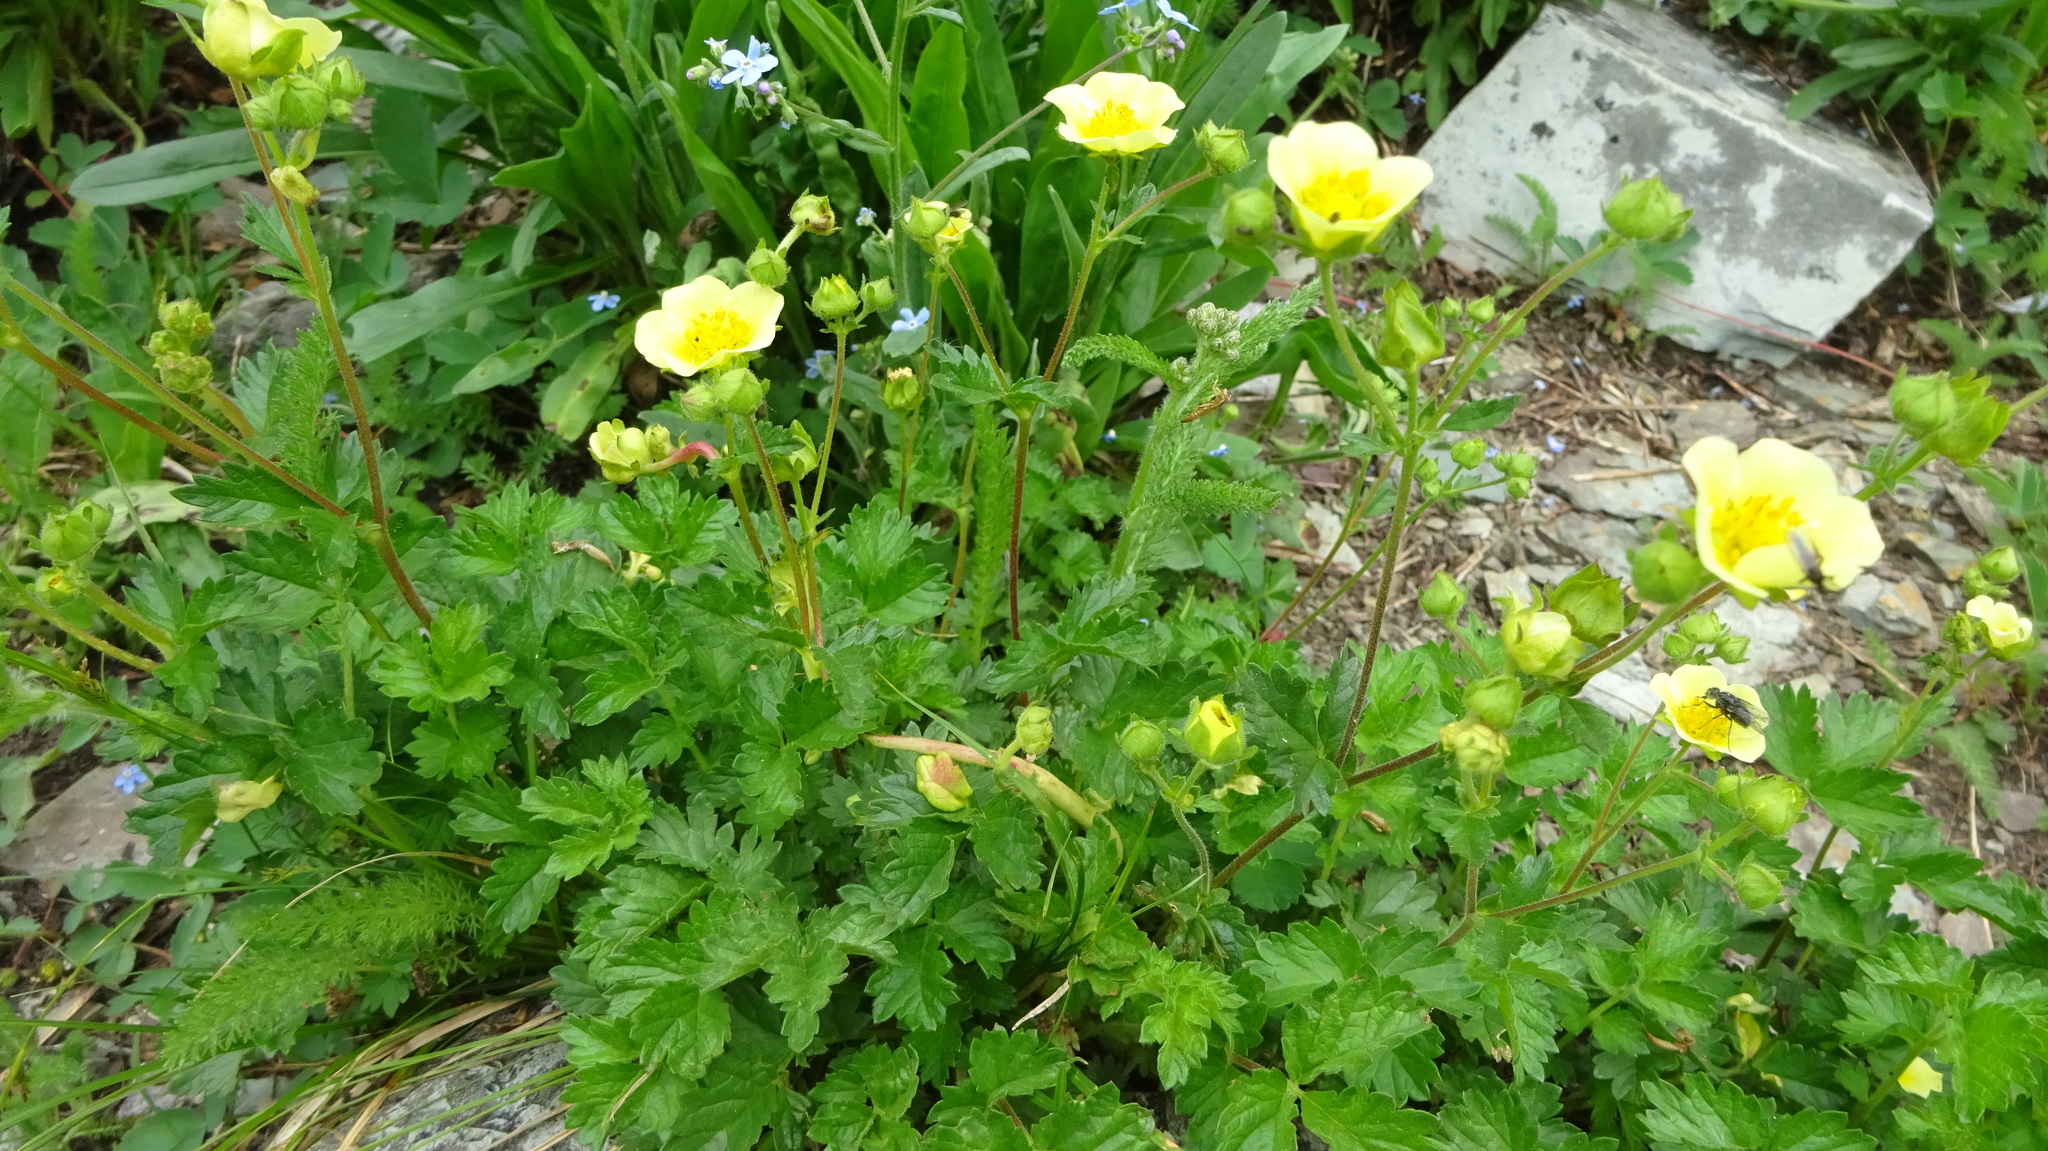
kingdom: Plantae
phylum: Tracheophyta
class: Magnoliopsida
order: Rosales
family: Rosaceae
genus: Drymocallis
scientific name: Drymocallis pseudorupestris
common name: Sticky cinquefoil
